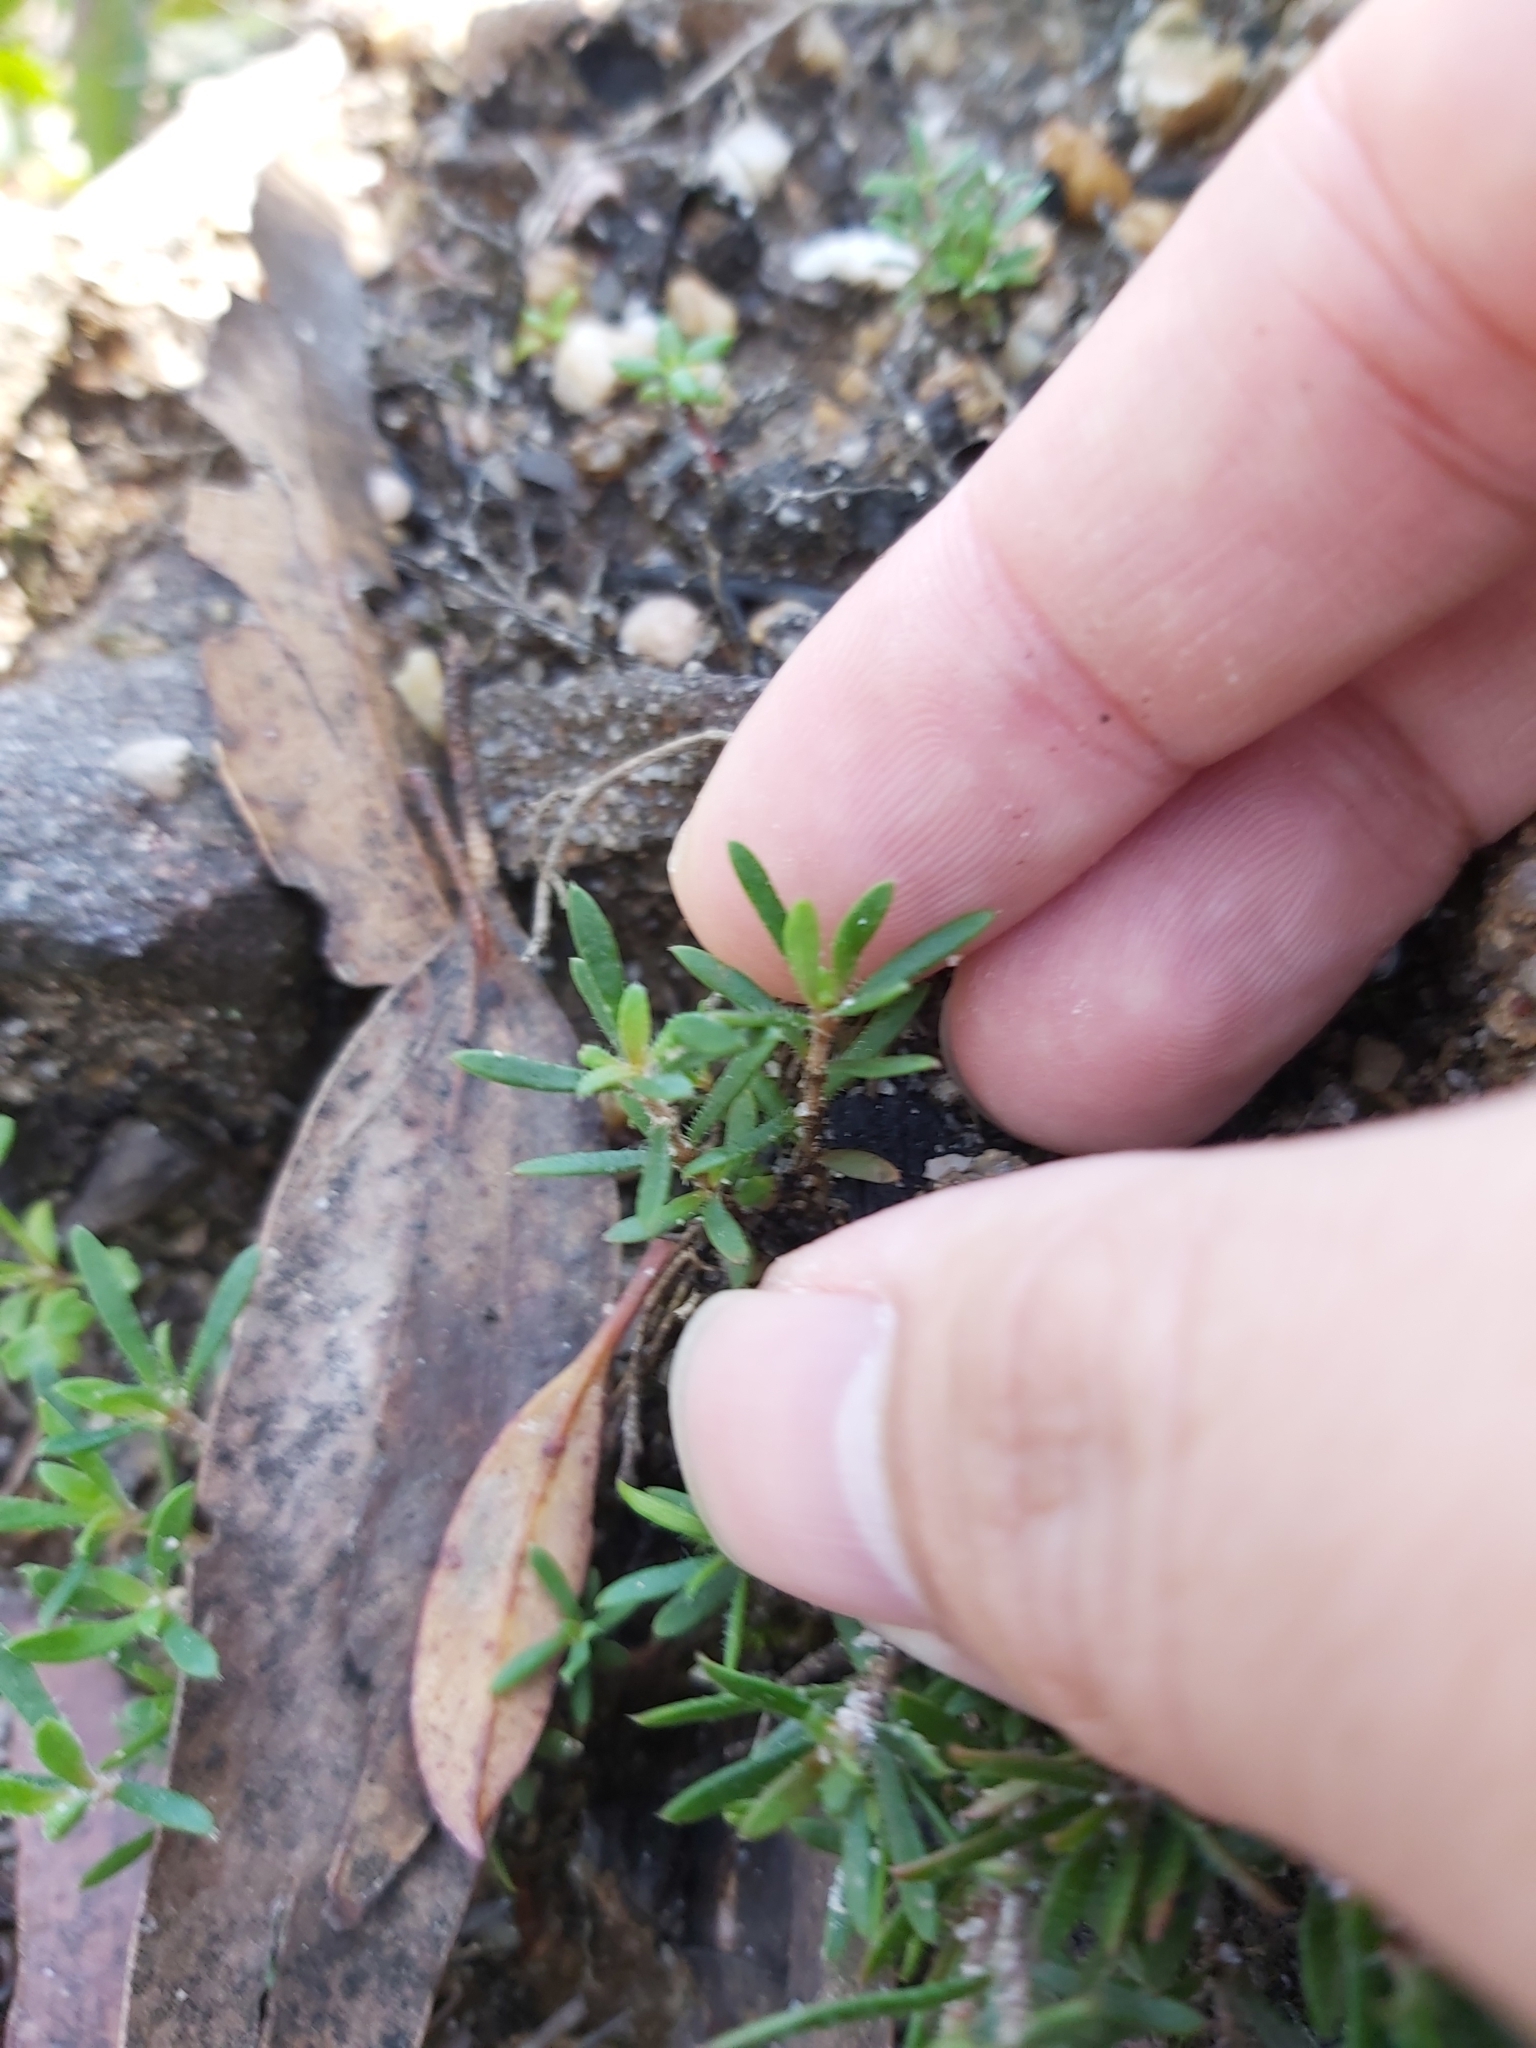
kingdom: Plantae
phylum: Tracheophyta
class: Magnoliopsida
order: Gentianales
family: Loganiaceae
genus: Mitrasacme
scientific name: Mitrasacme polymorpha
